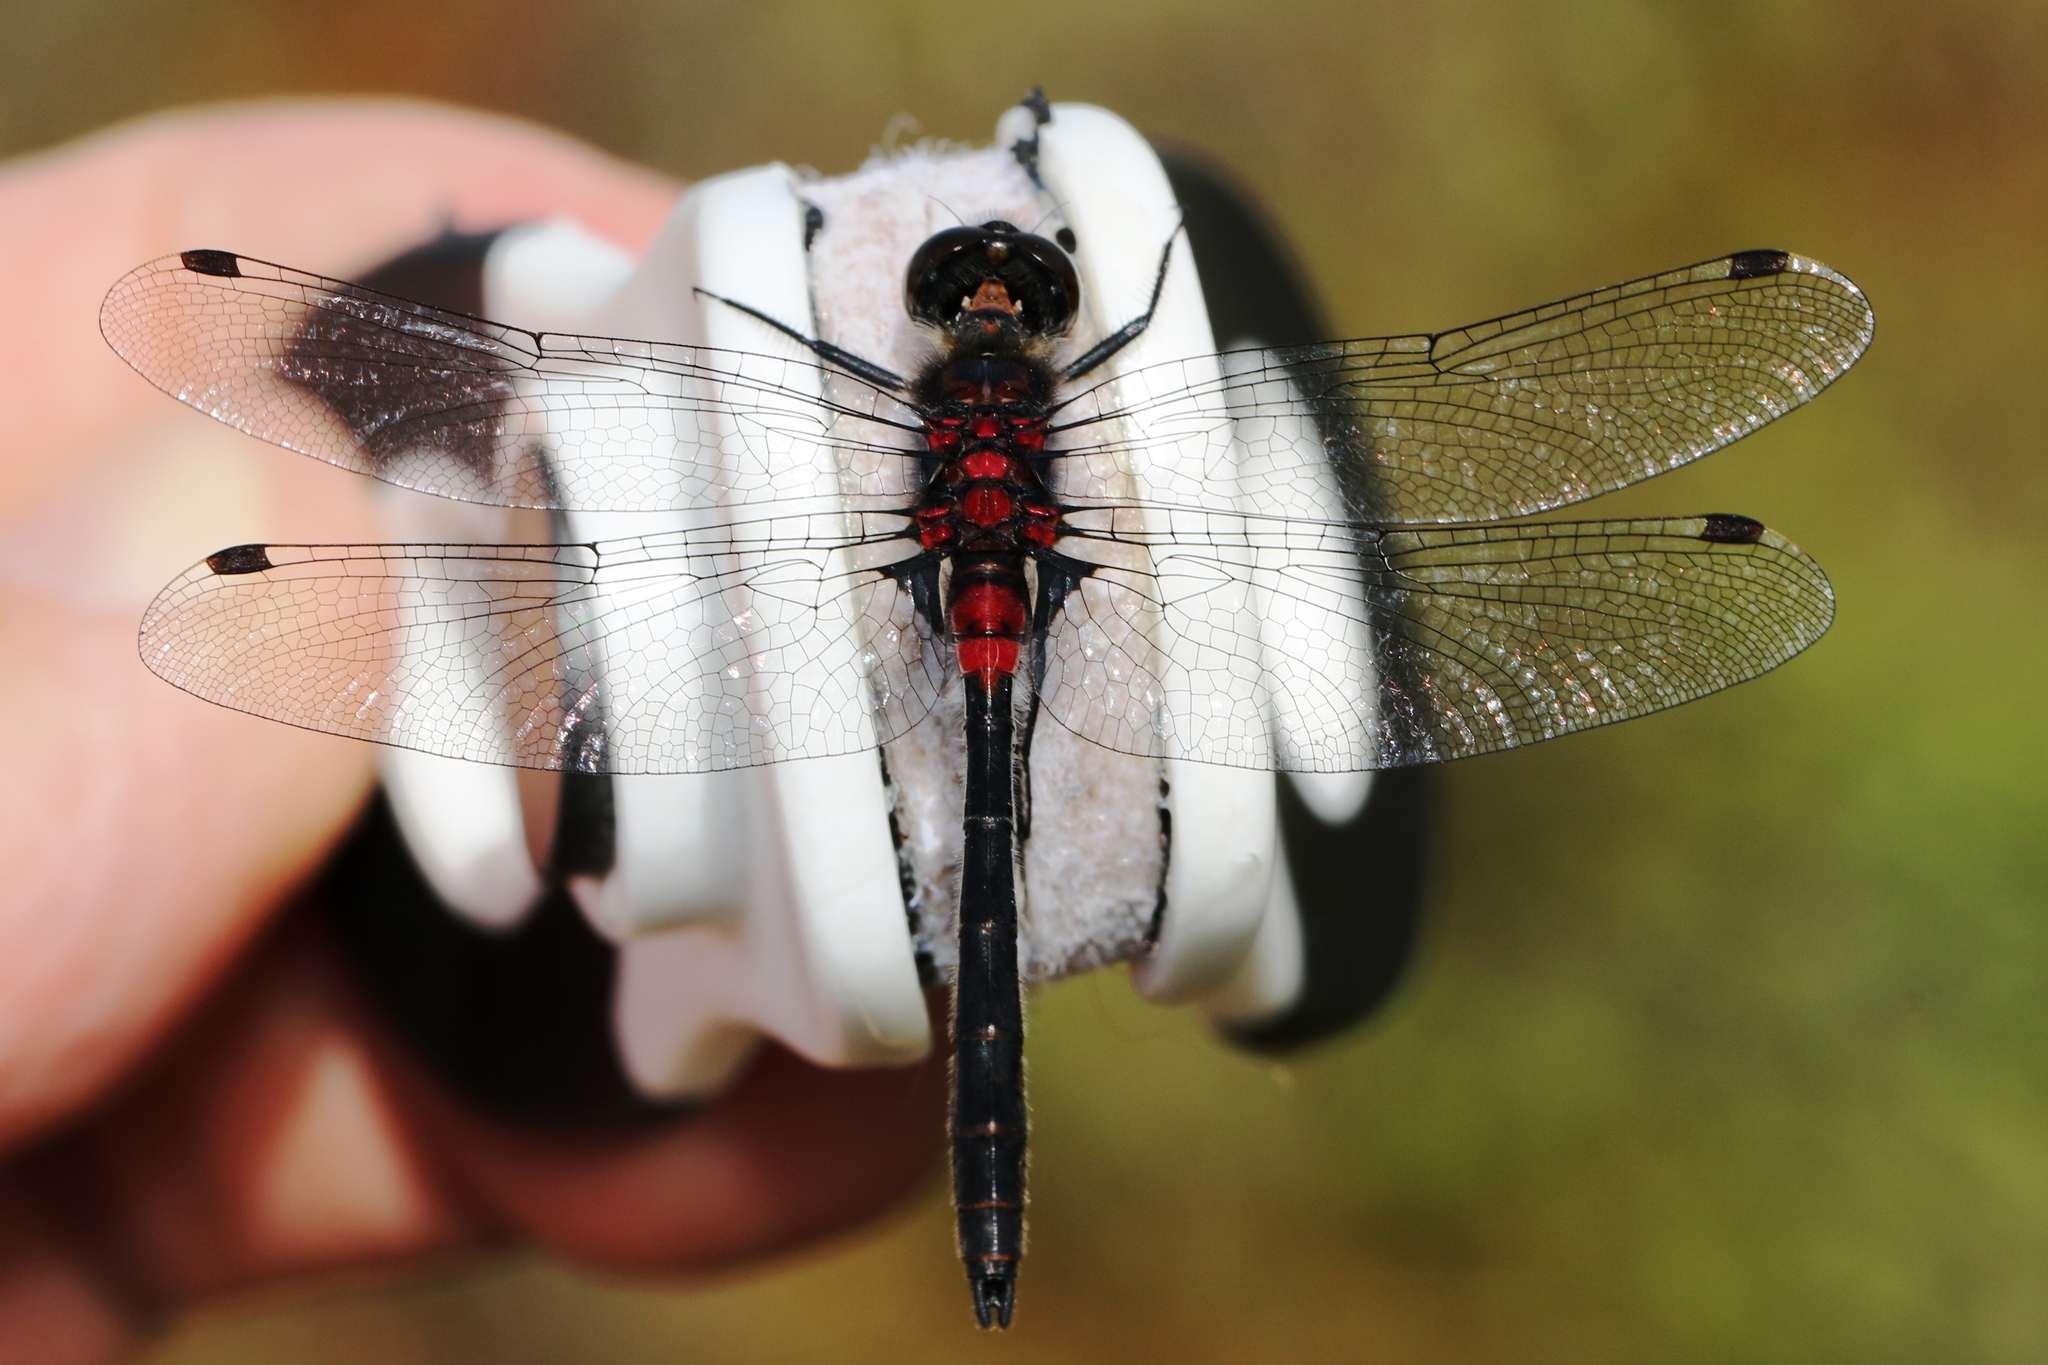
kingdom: Animalia
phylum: Arthropoda
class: Insecta
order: Odonata
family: Libellulidae
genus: Leucorrhinia
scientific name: Leucorrhinia glacialis
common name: Crimson-ringed whiteface
